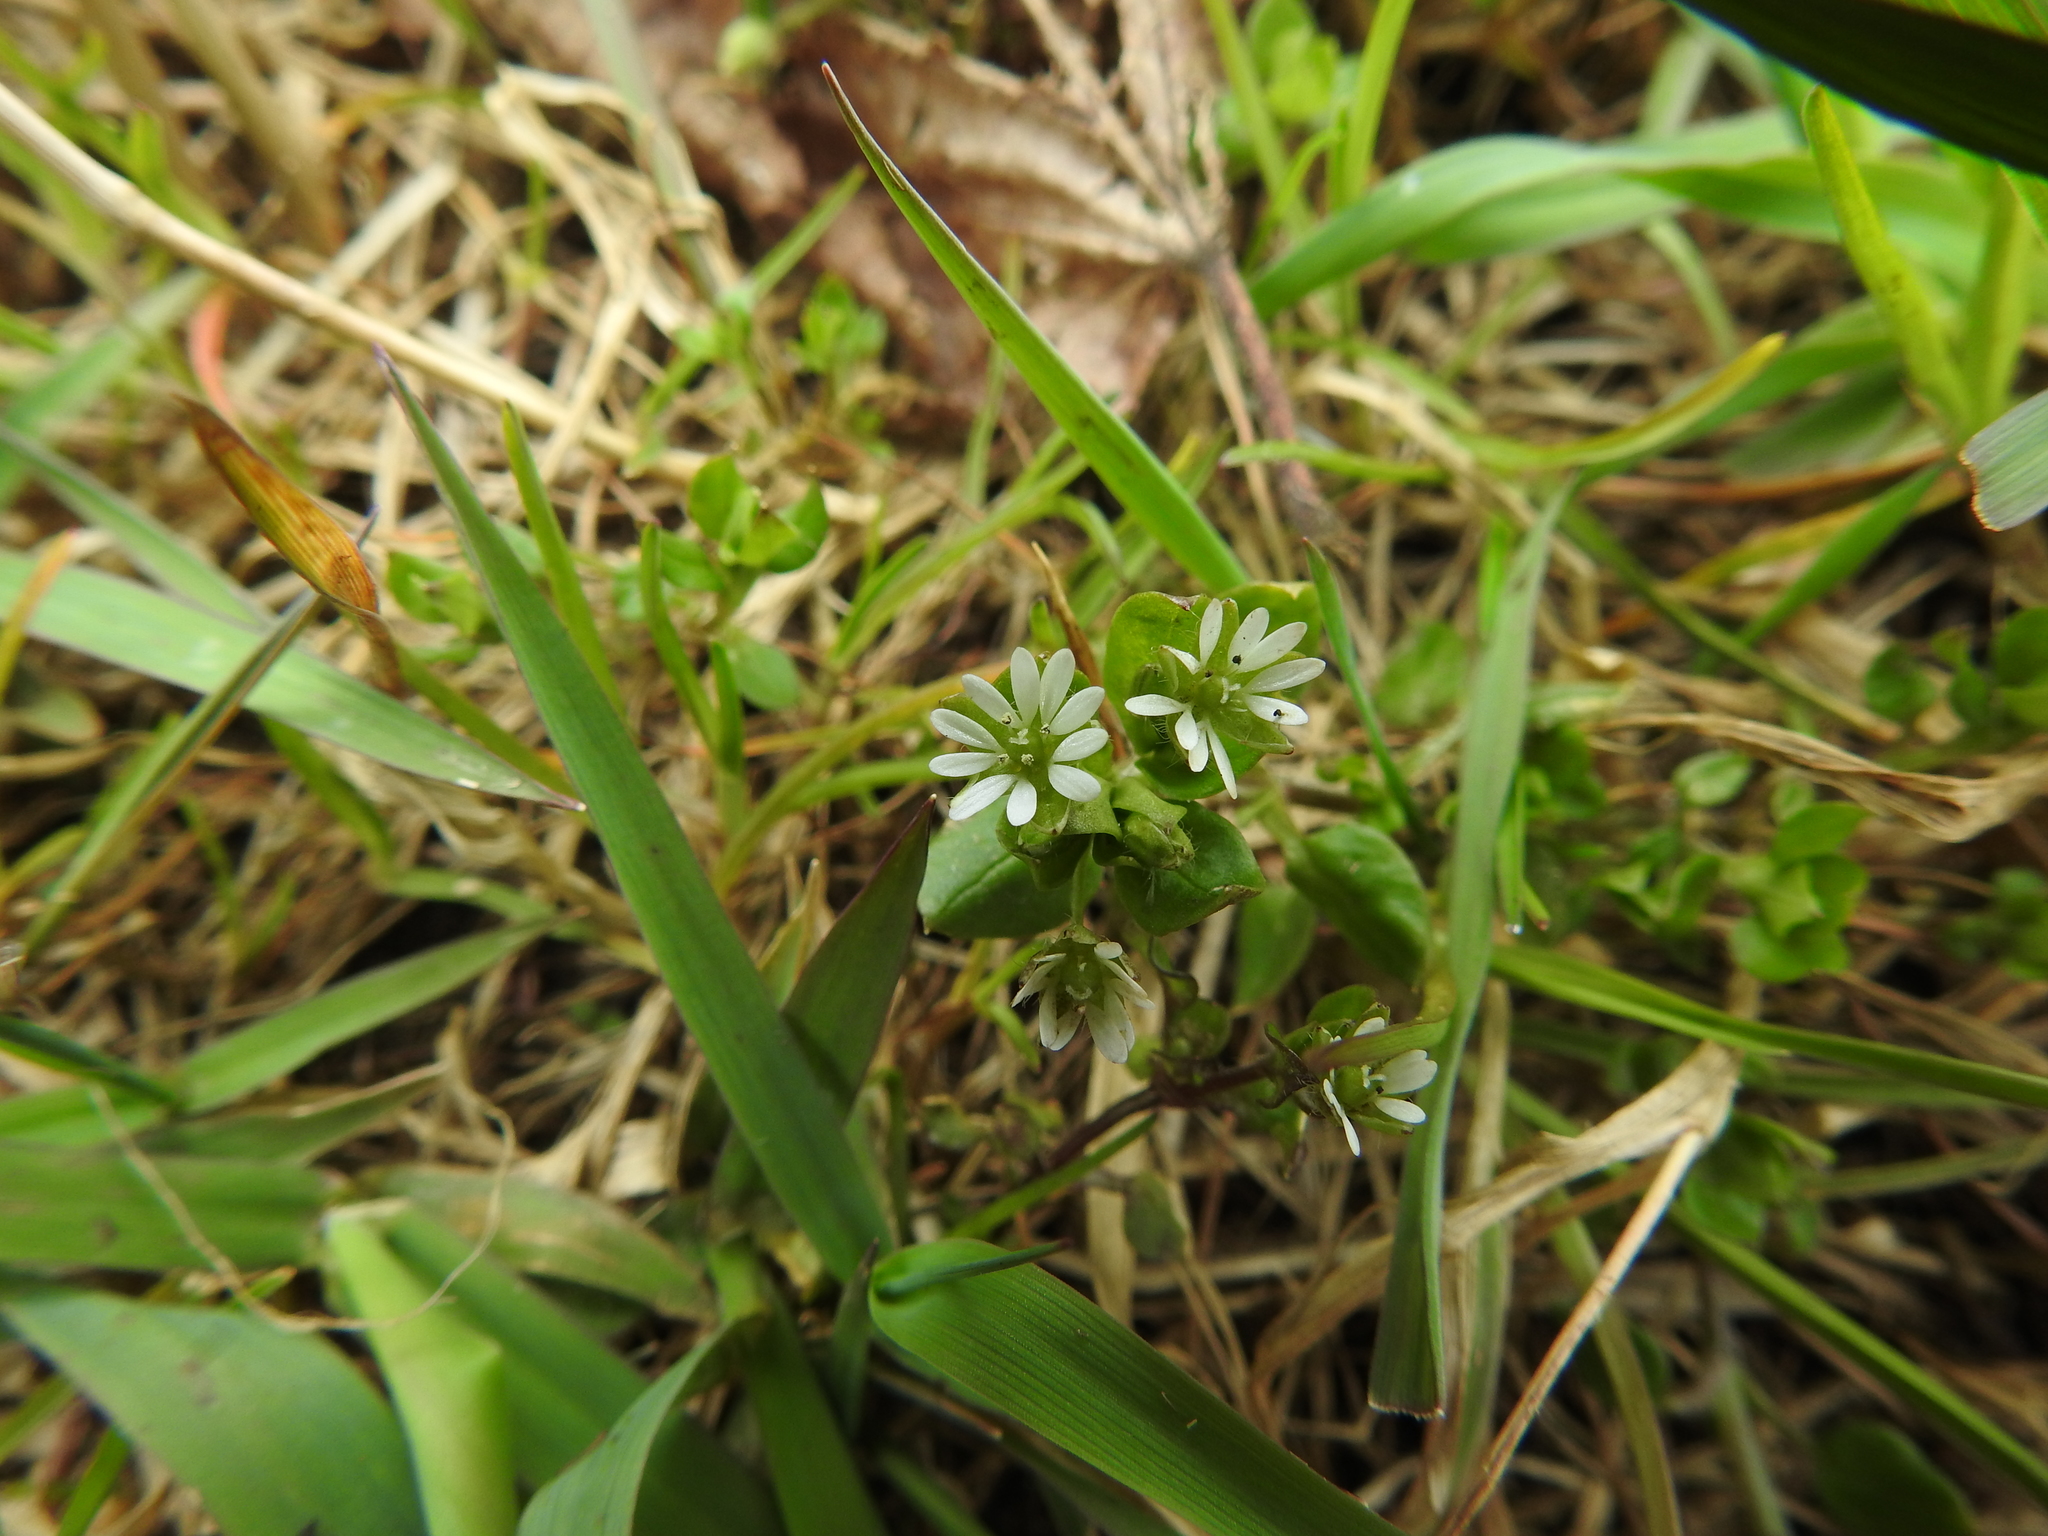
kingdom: Plantae
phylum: Tracheophyta
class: Magnoliopsida
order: Caryophyllales
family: Caryophyllaceae
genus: Stellaria
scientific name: Stellaria media
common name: Common chickweed
